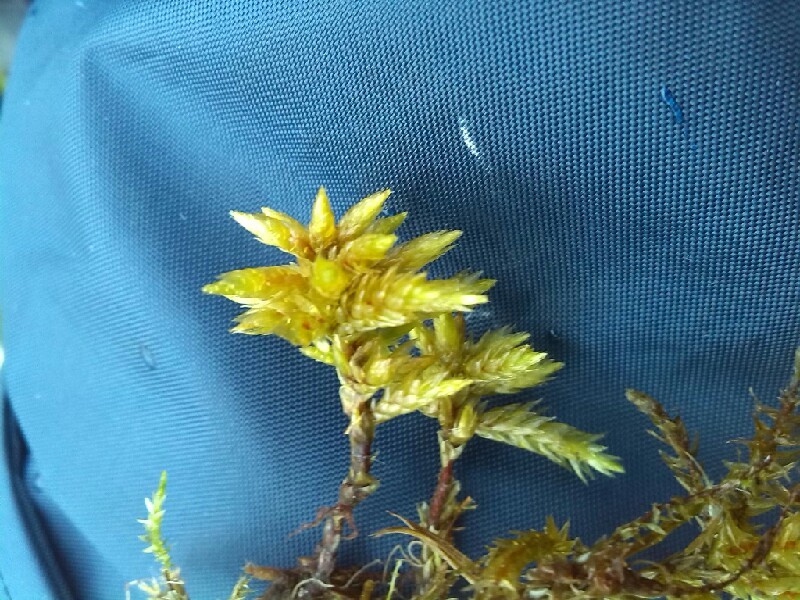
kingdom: Plantae
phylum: Bryophyta
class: Bryopsida
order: Hypnales
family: Climaciaceae
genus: Climacium
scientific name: Climacium dendroides
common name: Northern tree moss
